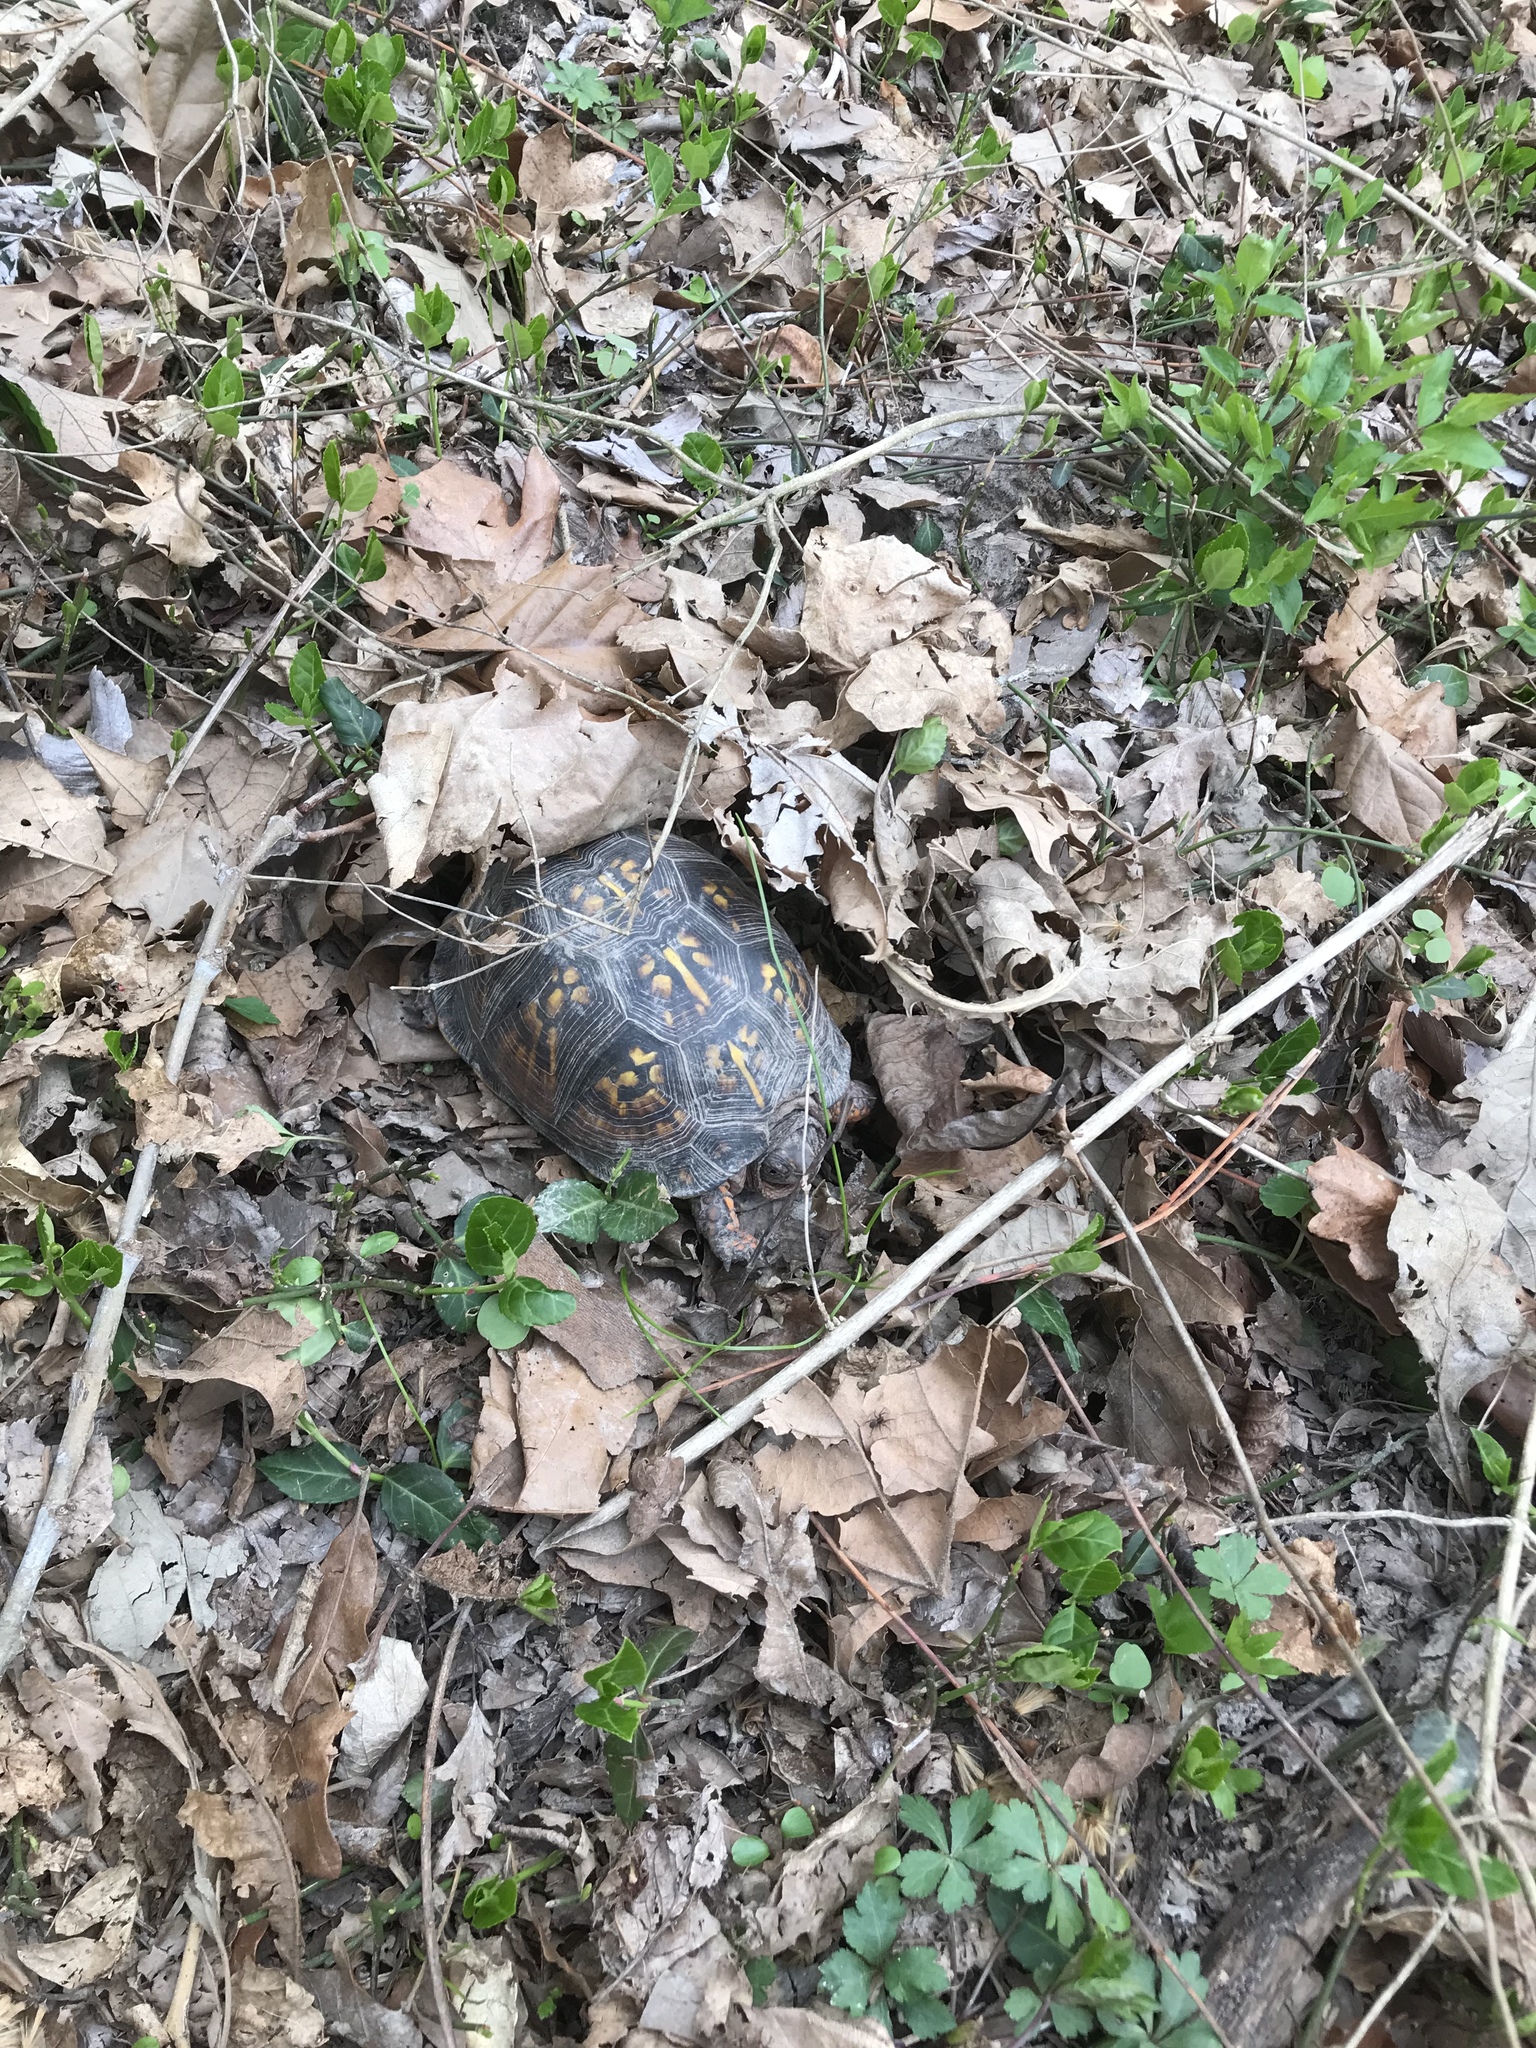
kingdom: Animalia
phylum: Chordata
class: Testudines
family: Emydidae
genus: Terrapene
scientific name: Terrapene carolina
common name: Common box turtle
